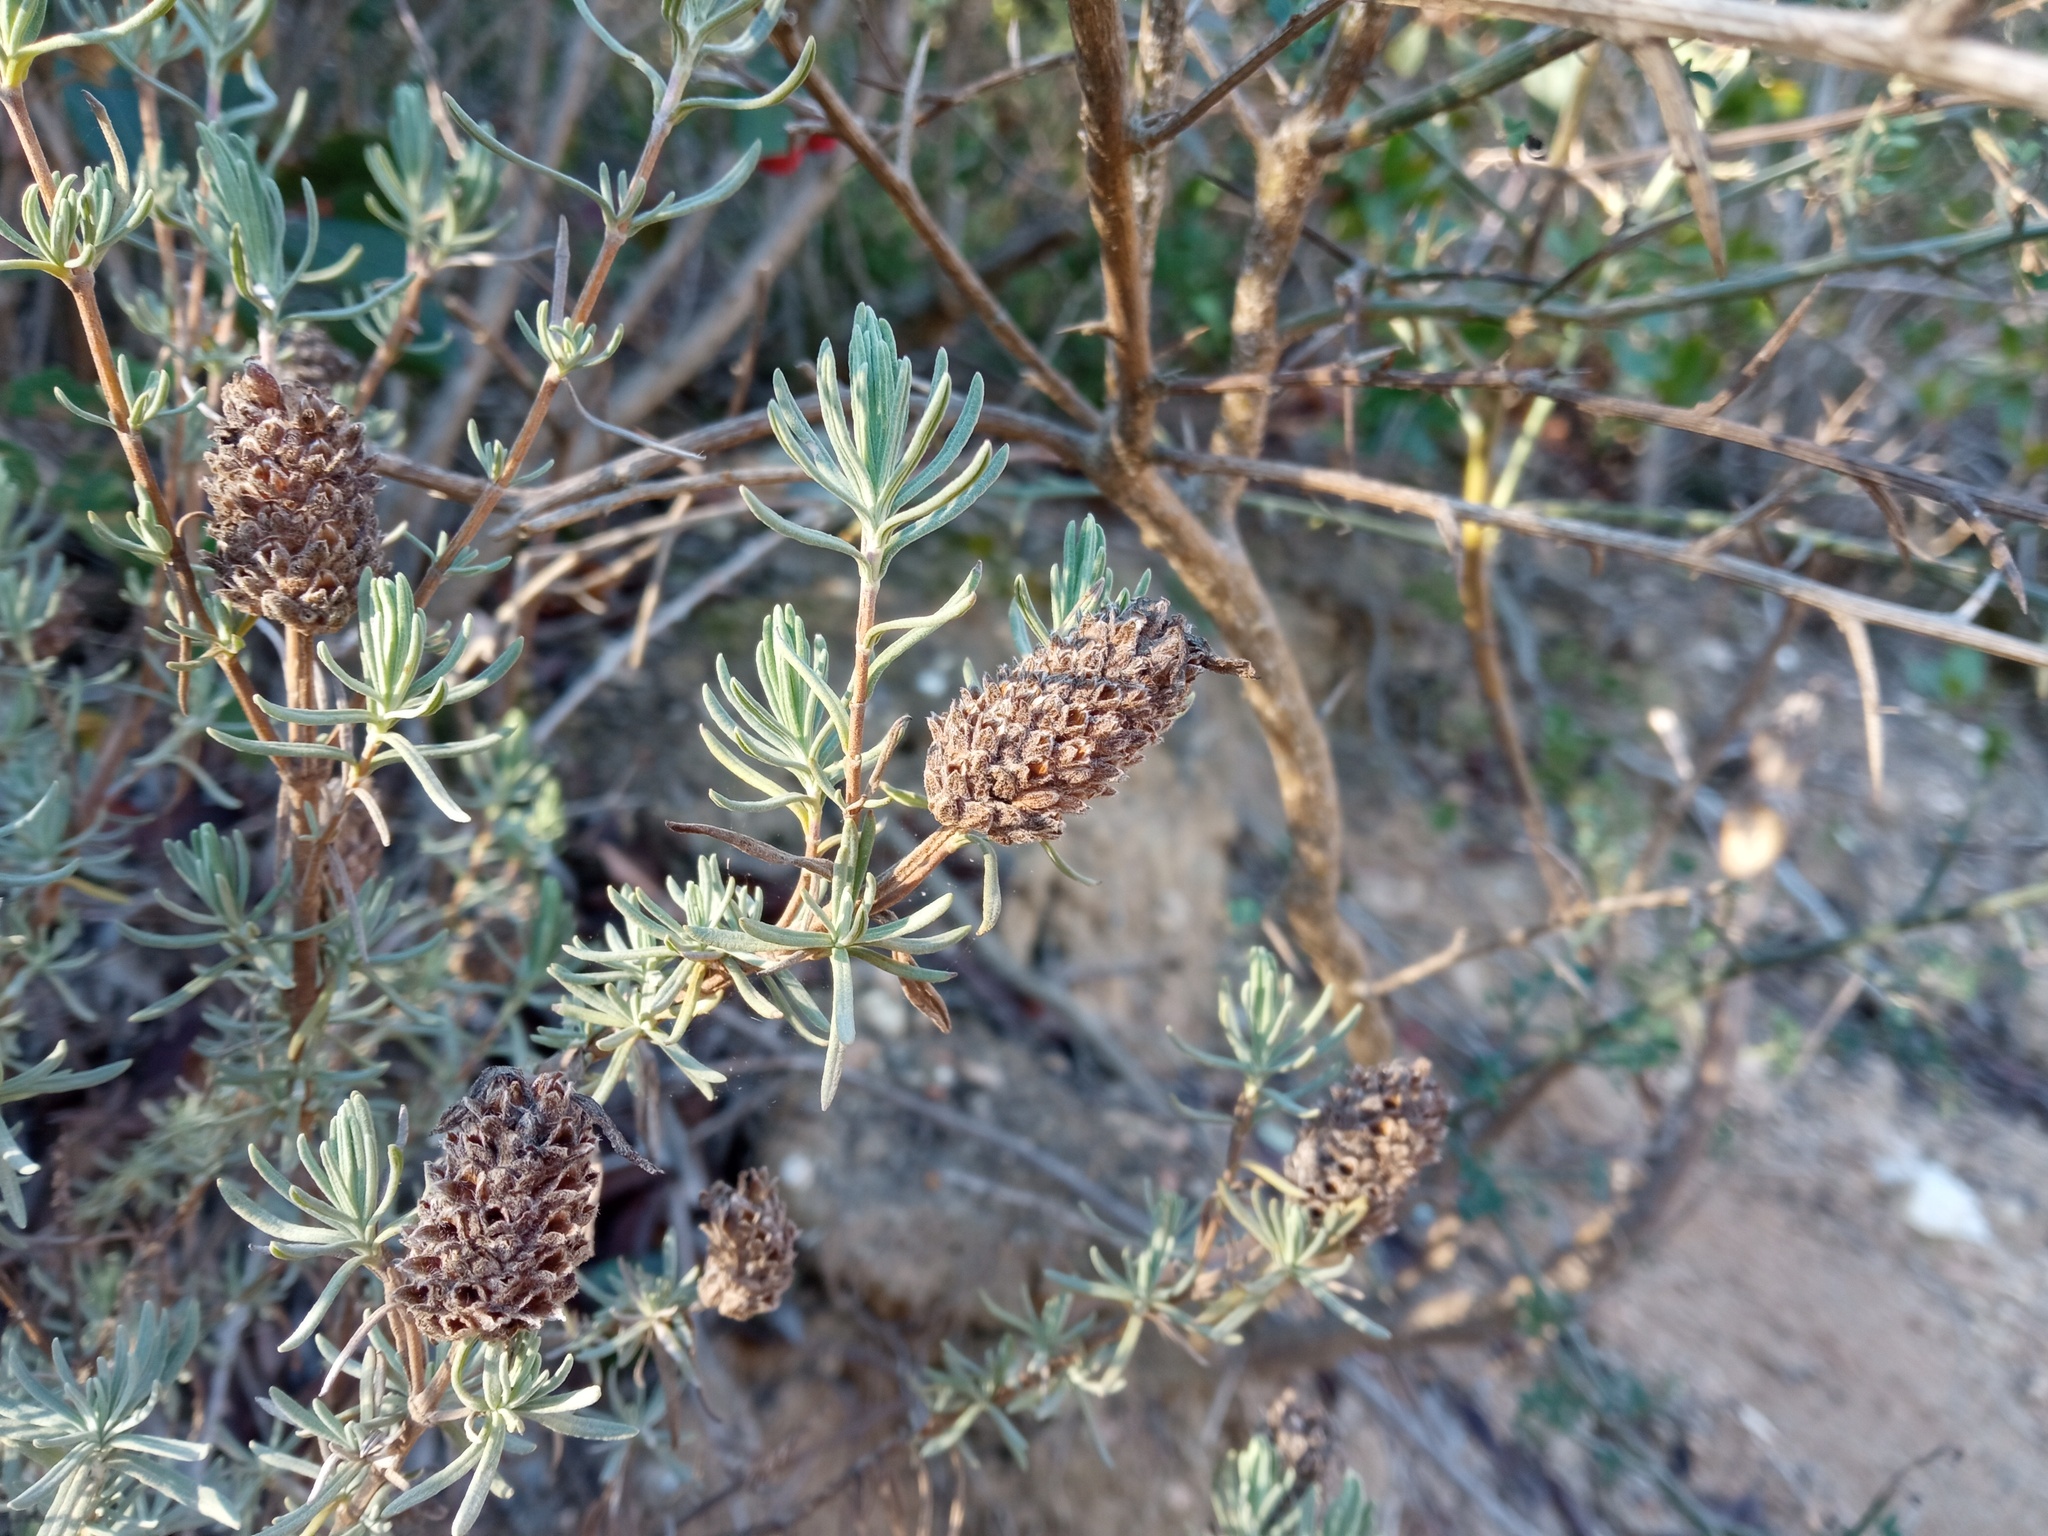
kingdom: Plantae
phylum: Tracheophyta
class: Magnoliopsida
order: Lamiales
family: Lamiaceae
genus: Lavandula
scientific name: Lavandula stoechas
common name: French lavender
